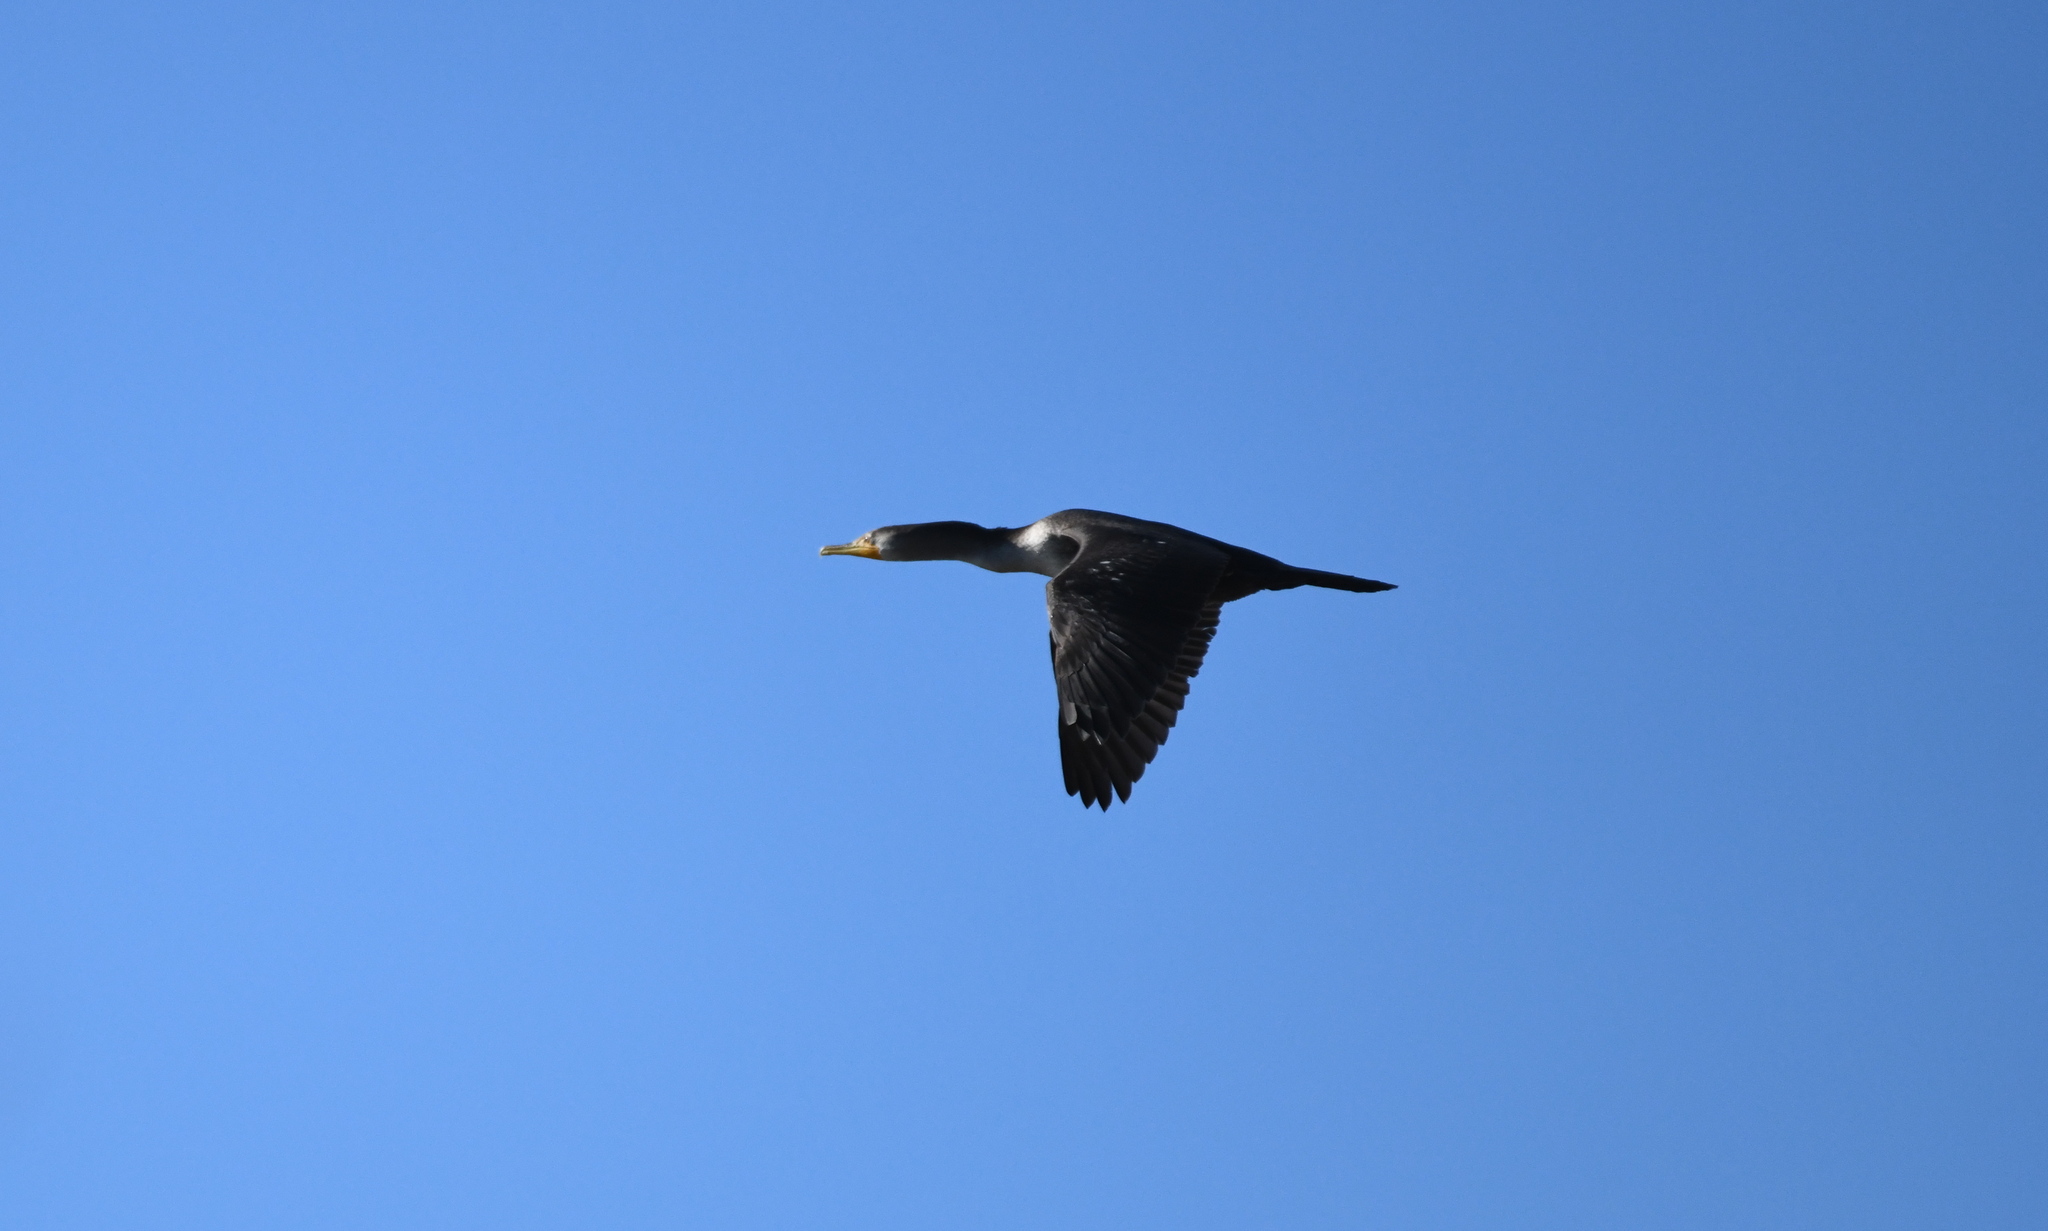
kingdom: Animalia
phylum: Chordata
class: Aves
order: Suliformes
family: Phalacrocoracidae
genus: Phalacrocorax
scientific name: Phalacrocorax auritus
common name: Double-crested cormorant
